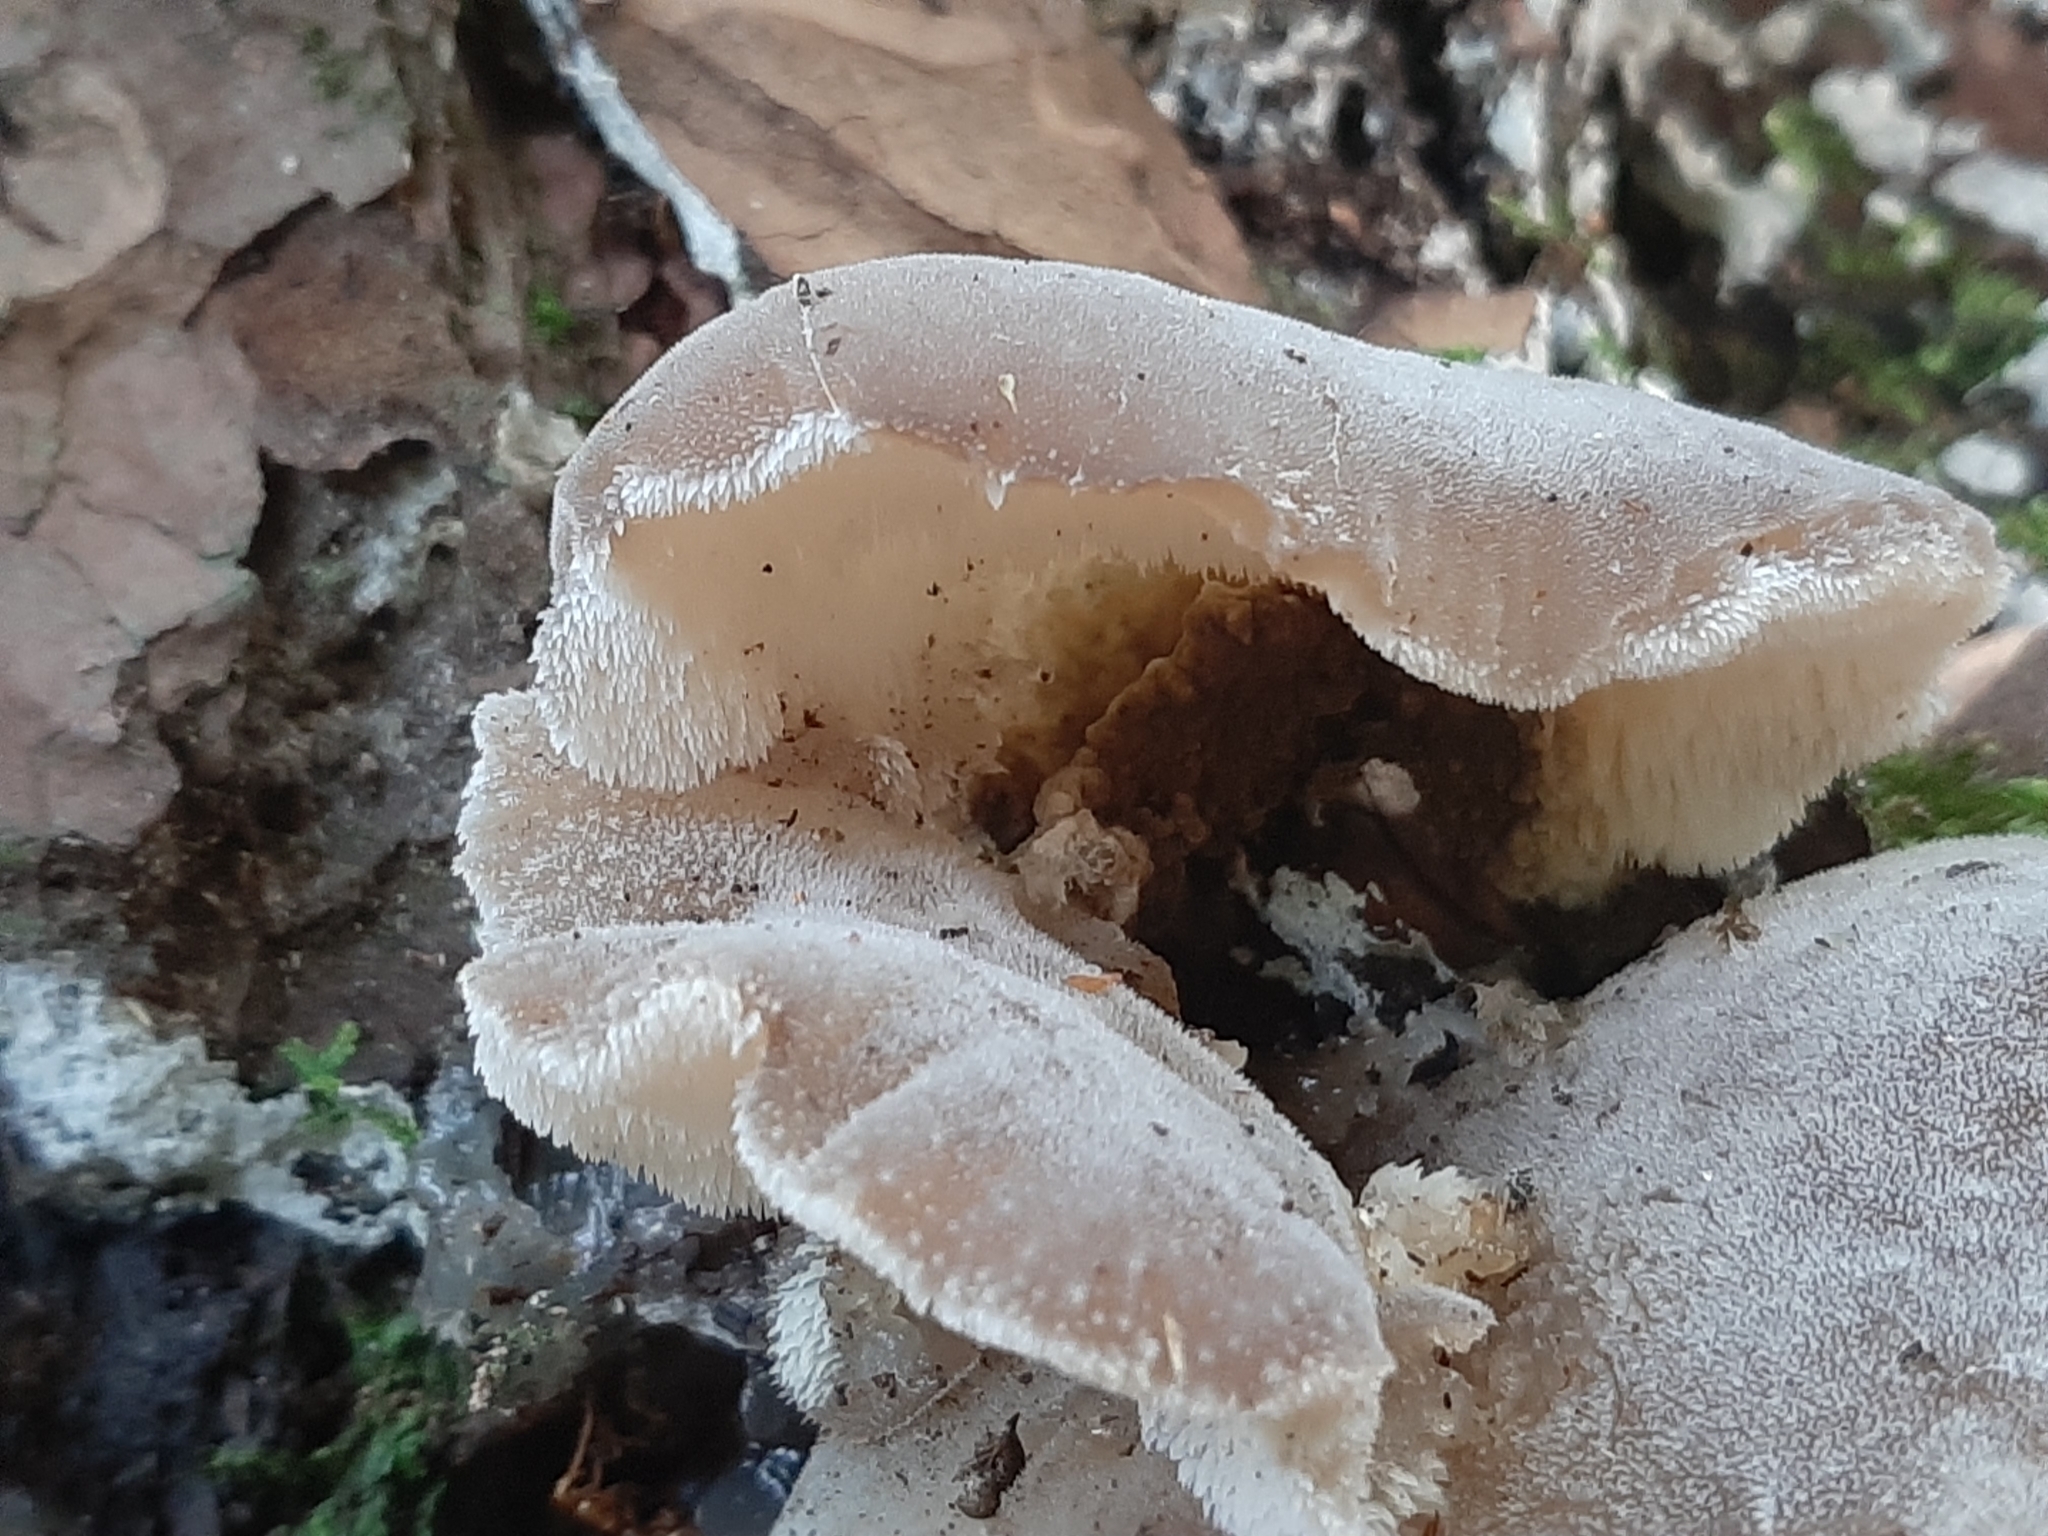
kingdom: Fungi
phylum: Basidiomycota
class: Agaricomycetes
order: Auriculariales
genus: Pseudohydnum
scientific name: Pseudohydnum gelatinosum
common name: Jelly tongue
